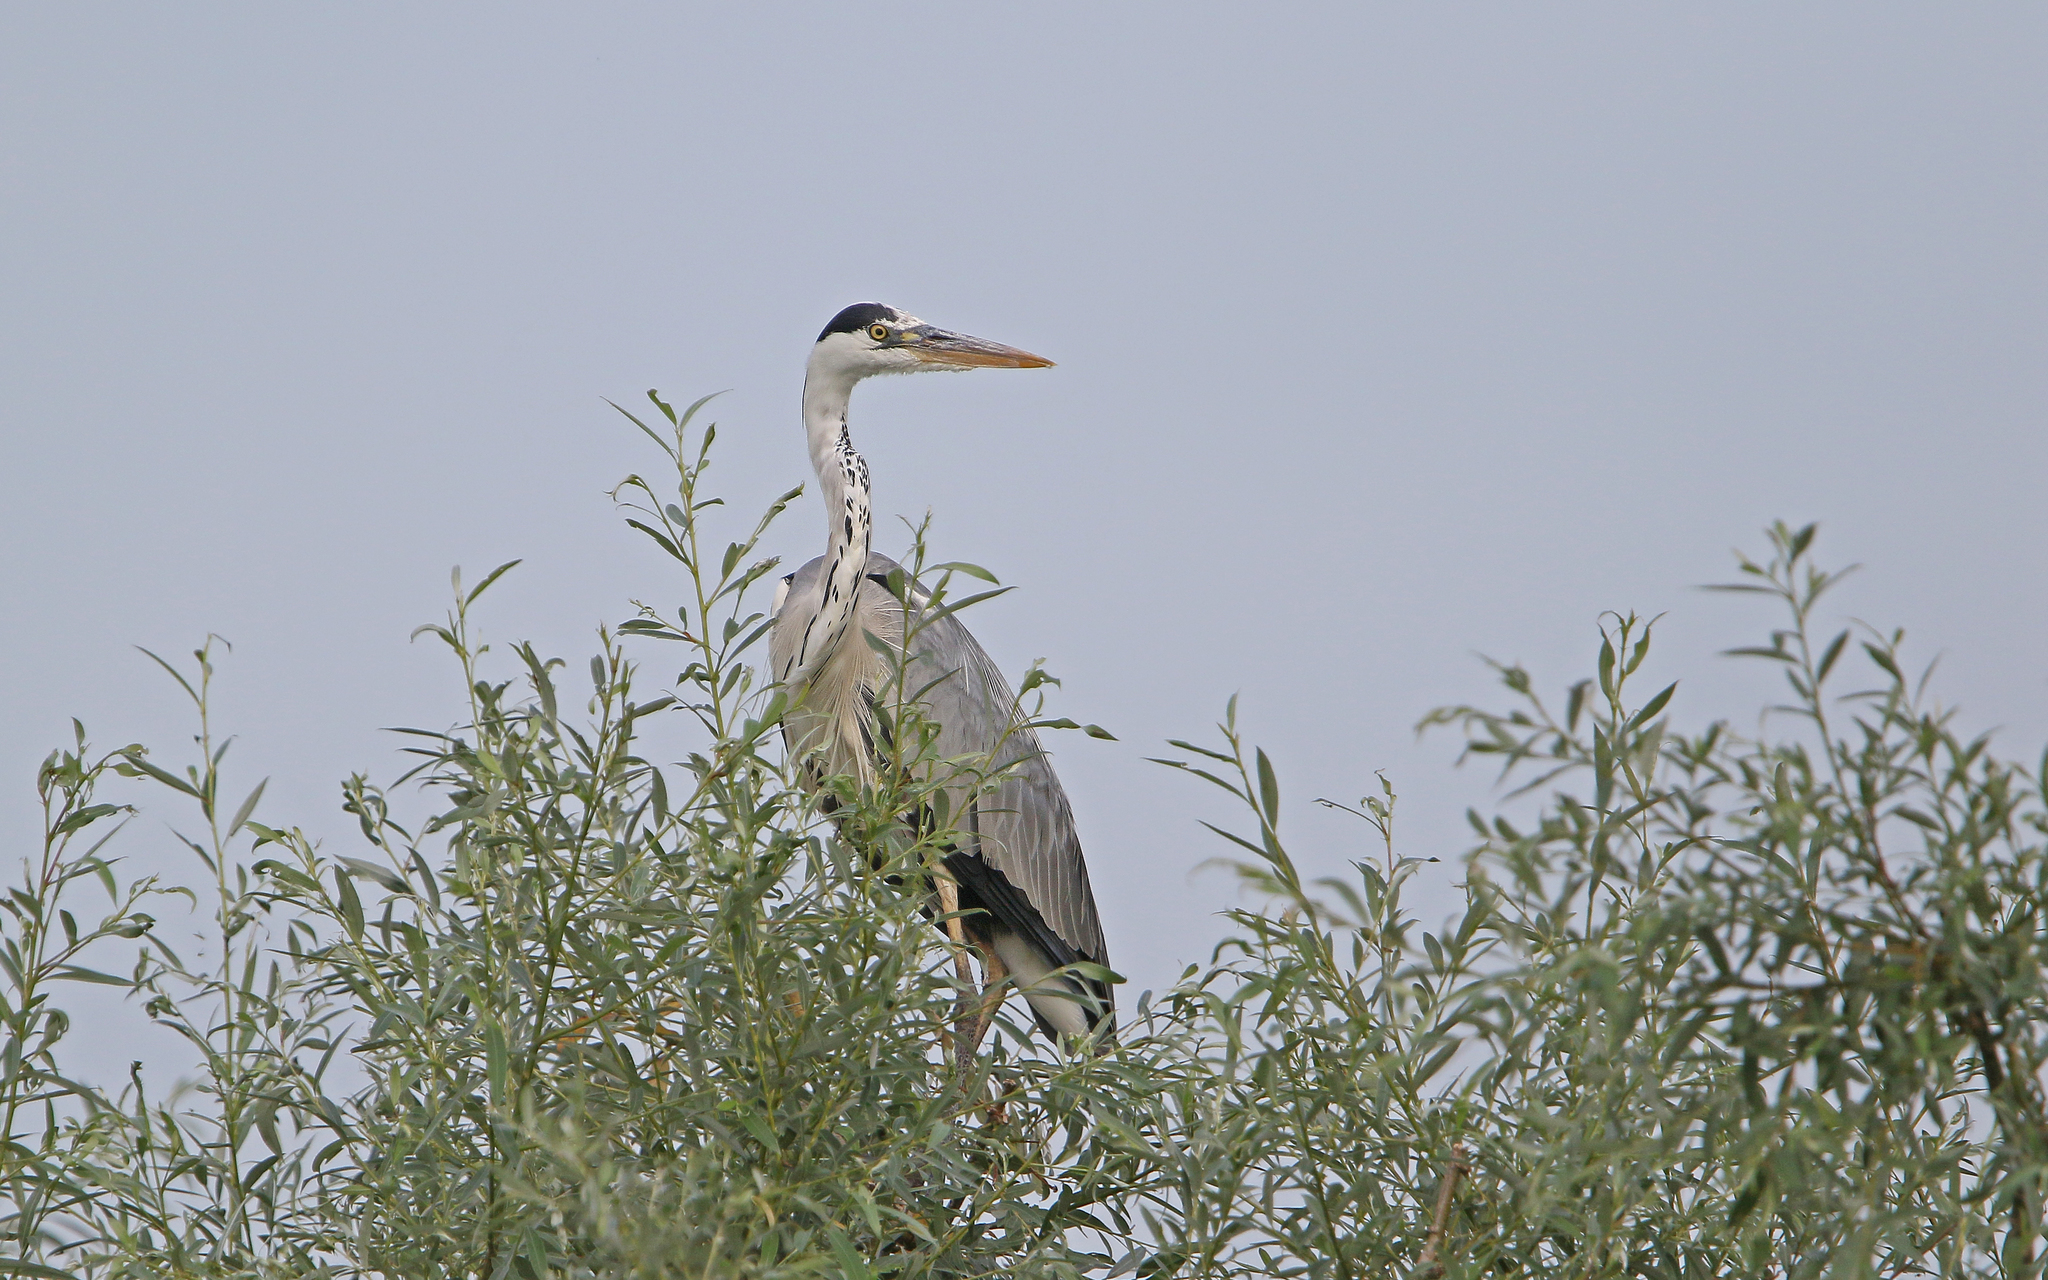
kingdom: Animalia
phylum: Chordata
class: Aves
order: Pelecaniformes
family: Ardeidae
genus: Ardea
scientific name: Ardea cinerea
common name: Grey heron
